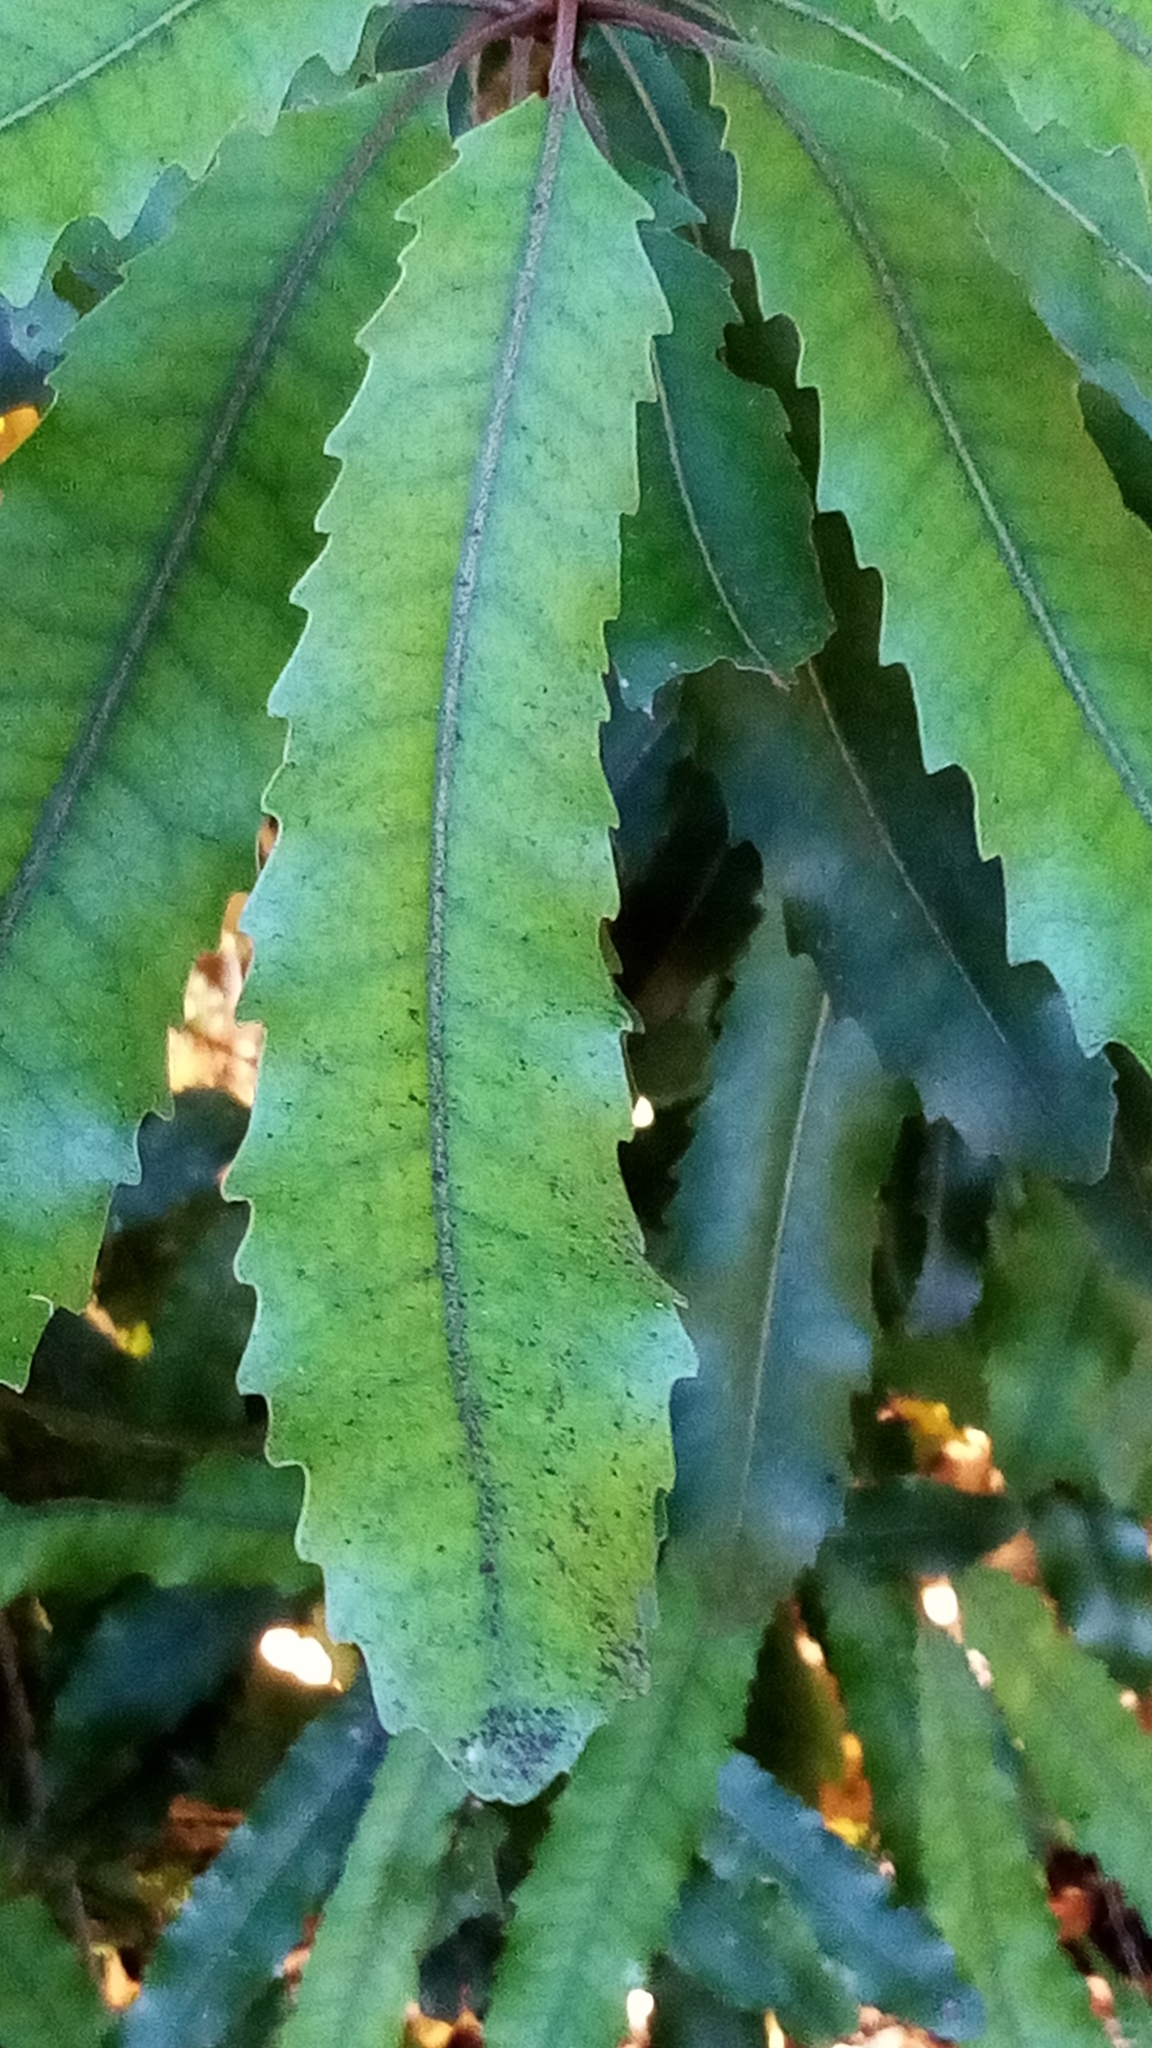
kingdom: Plantae
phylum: Tracheophyta
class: Magnoliopsida
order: Proteales
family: Proteaceae
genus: Knightia
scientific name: Knightia excelsa
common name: New zealand-honeysuckle
